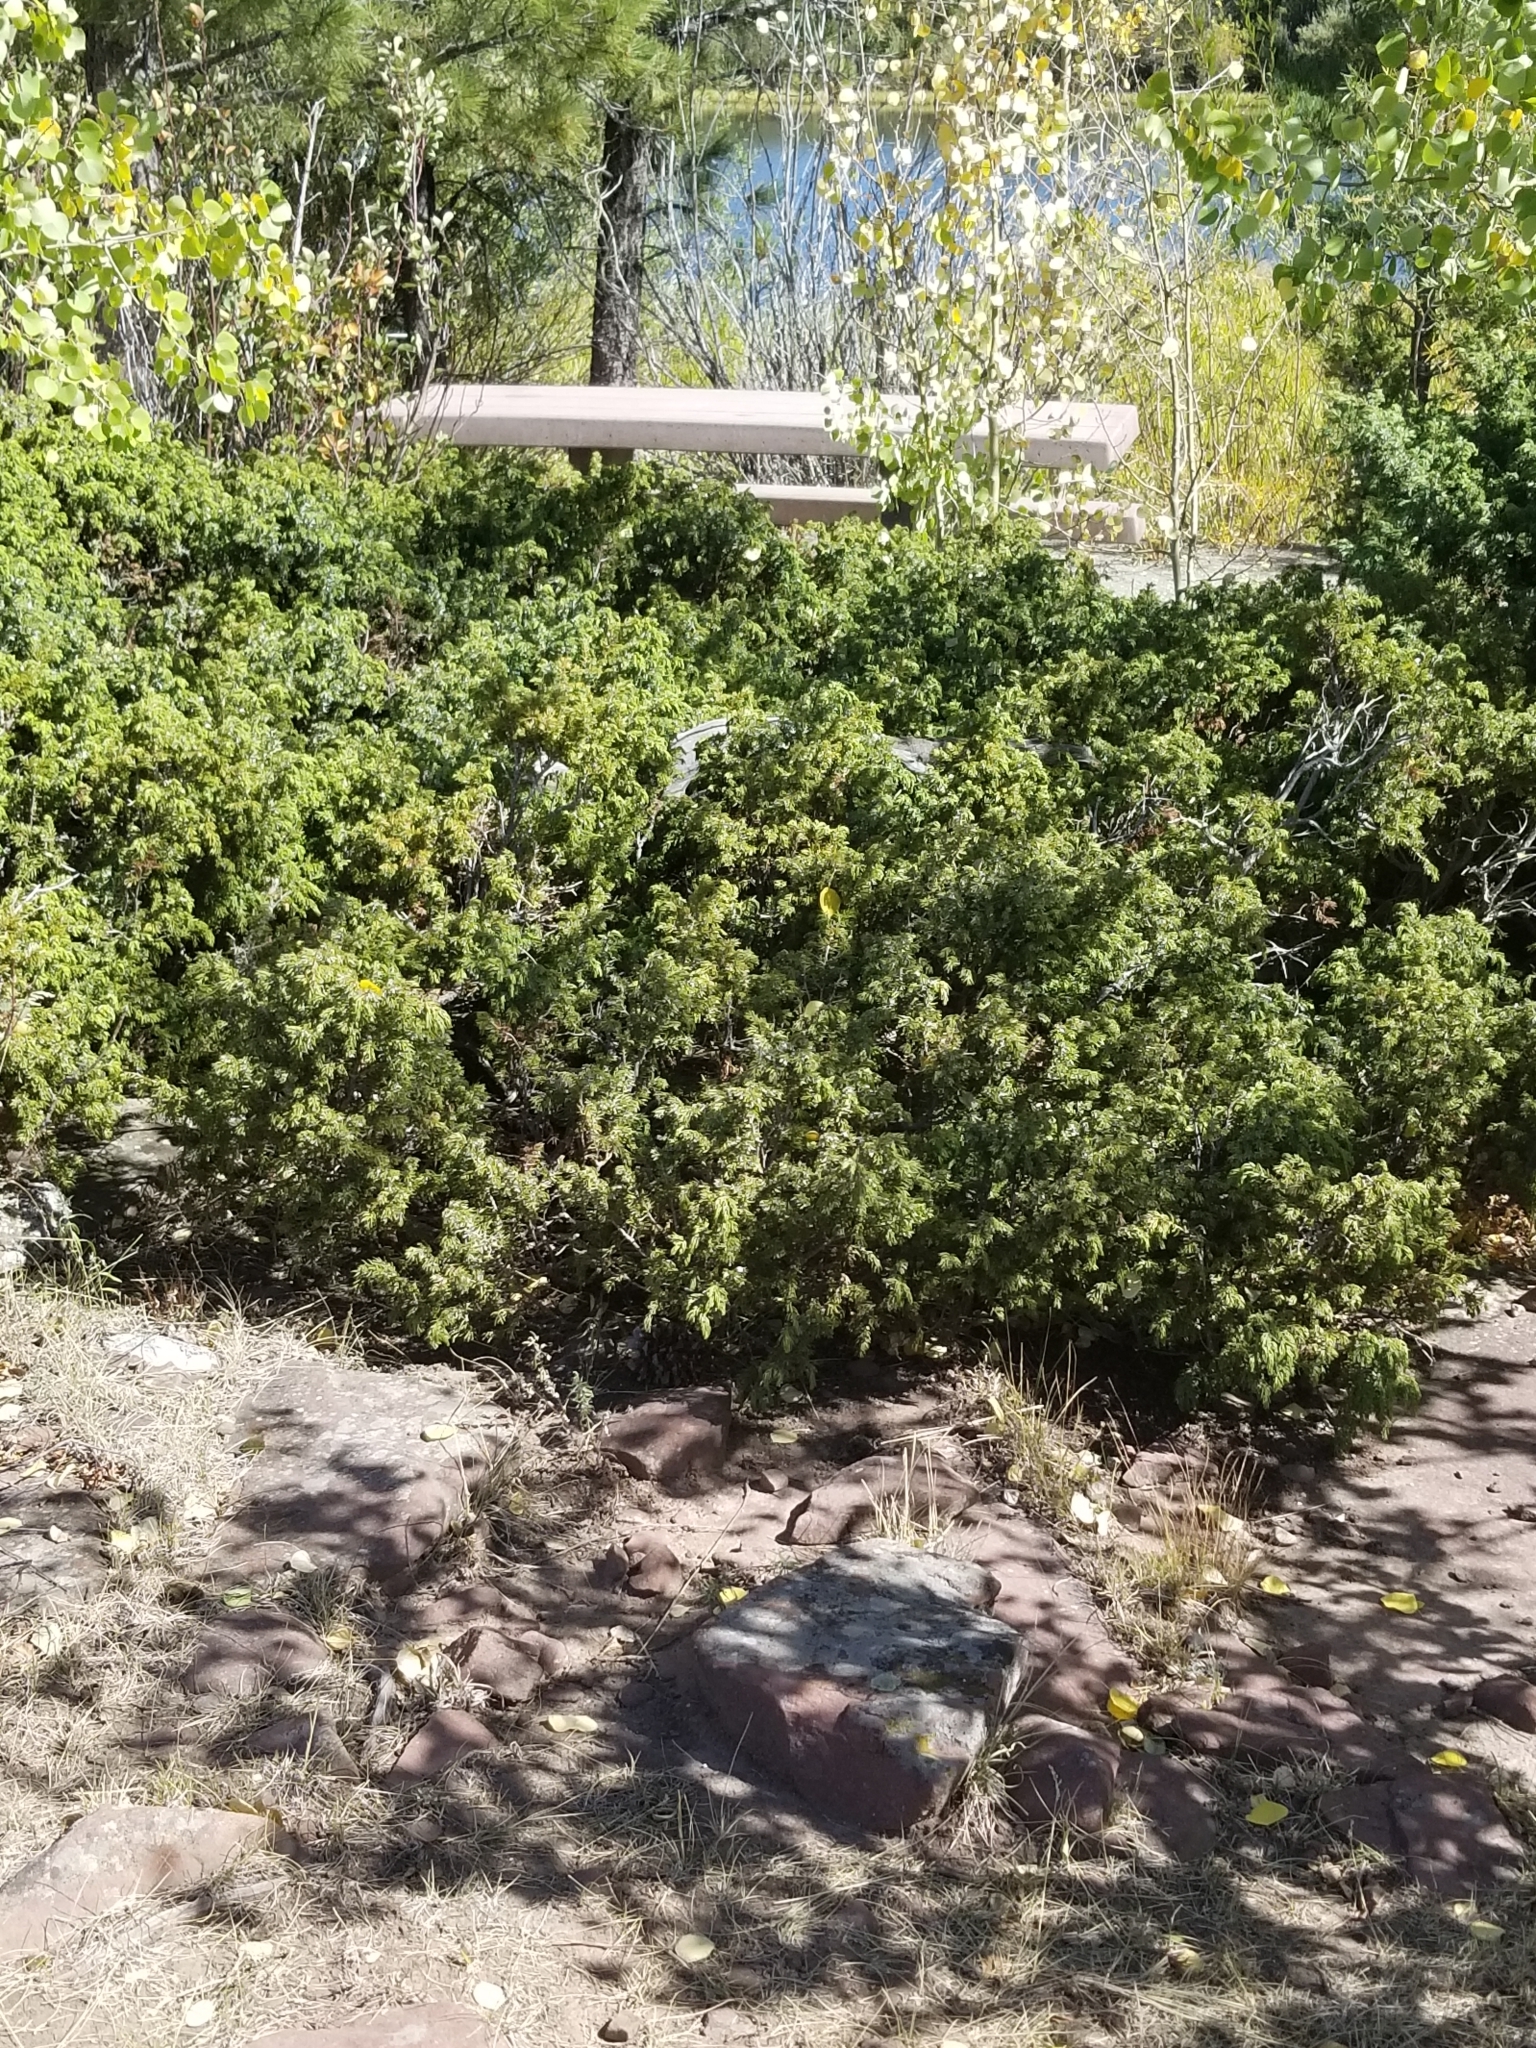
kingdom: Plantae
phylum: Tracheophyta
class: Pinopsida
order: Pinales
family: Cupressaceae
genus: Juniperus
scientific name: Juniperus communis
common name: Common juniper
